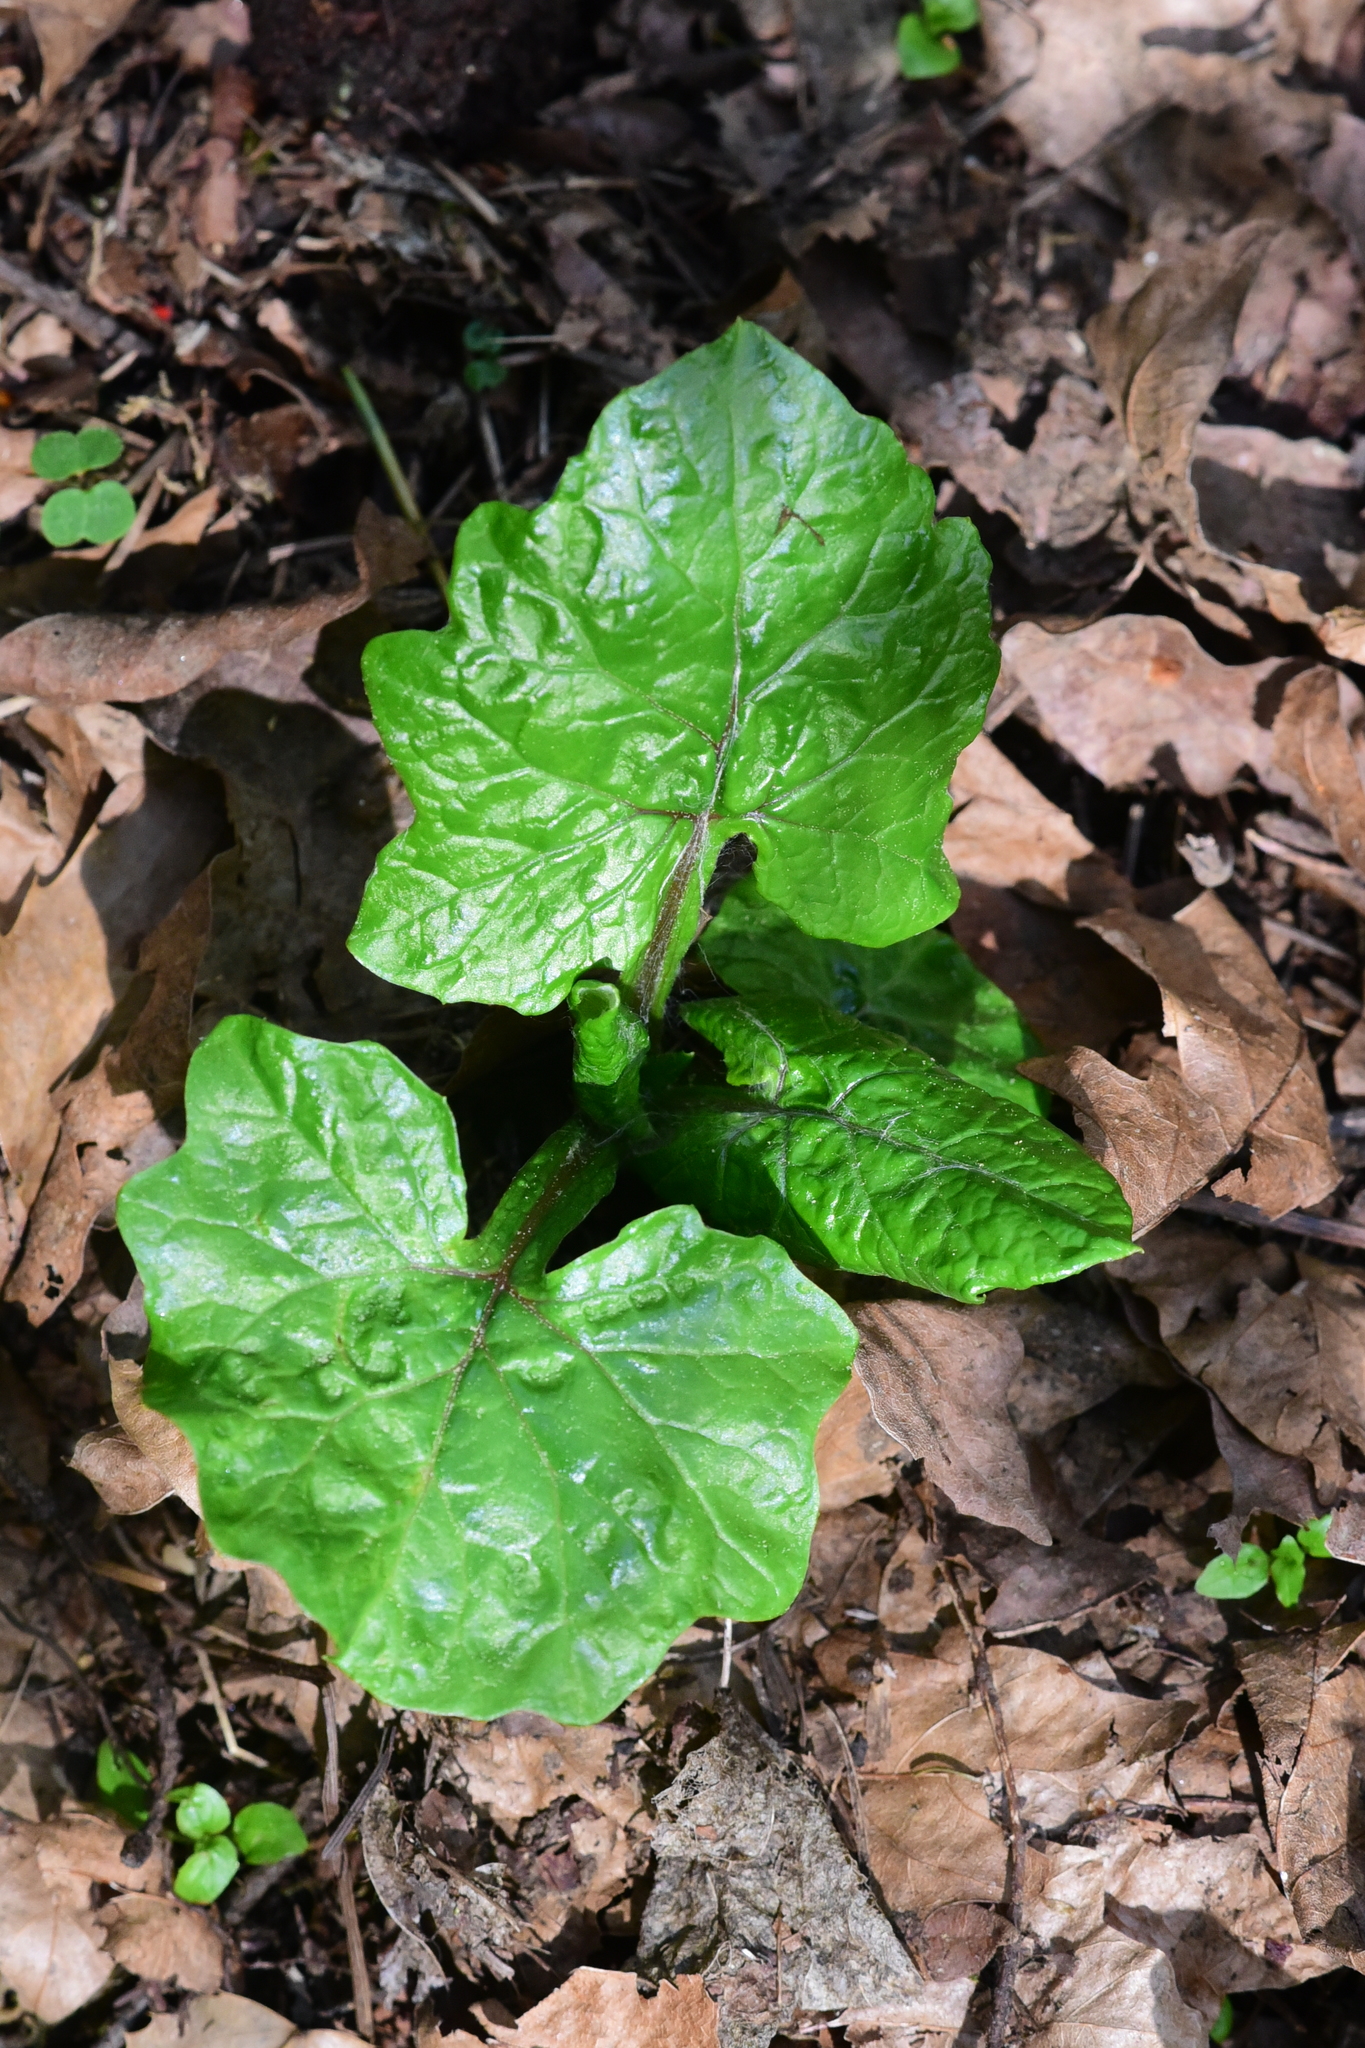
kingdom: Plantae
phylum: Tracheophyta
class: Magnoliopsida
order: Asterales
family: Asteraceae
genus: Adenocaulon
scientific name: Adenocaulon bicolor
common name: Trailplant
